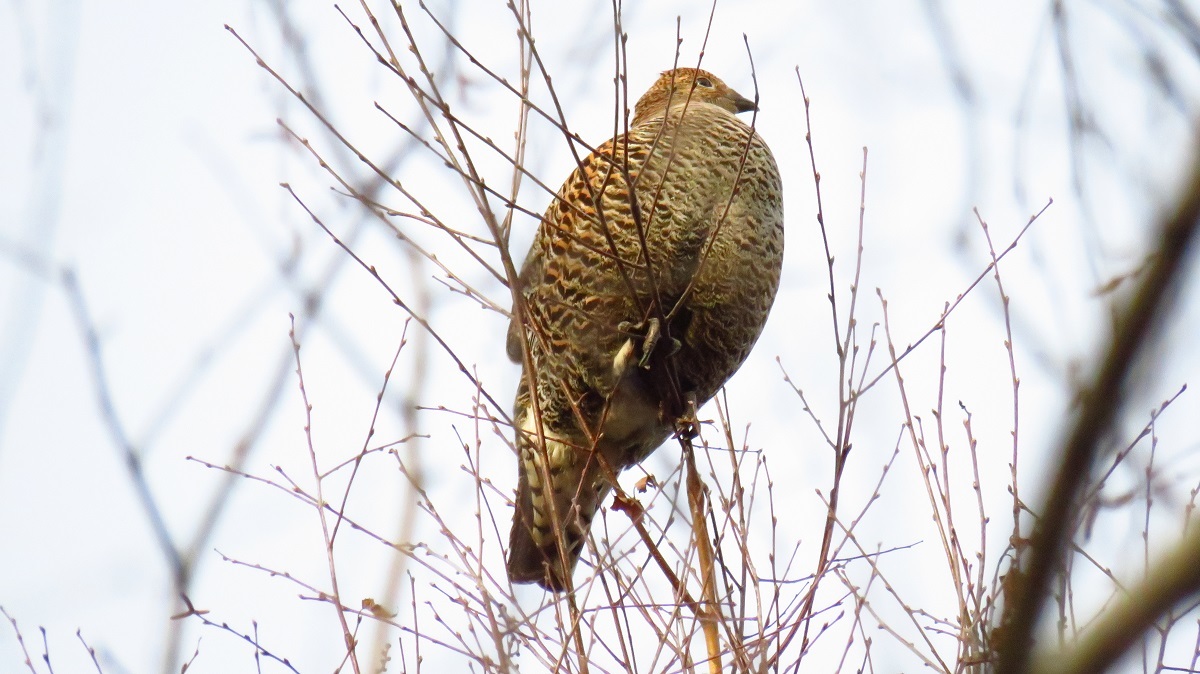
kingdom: Animalia
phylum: Chordata
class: Aves
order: Galliformes
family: Phasianidae
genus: Lyrurus
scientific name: Lyrurus tetrix
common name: Black grouse
